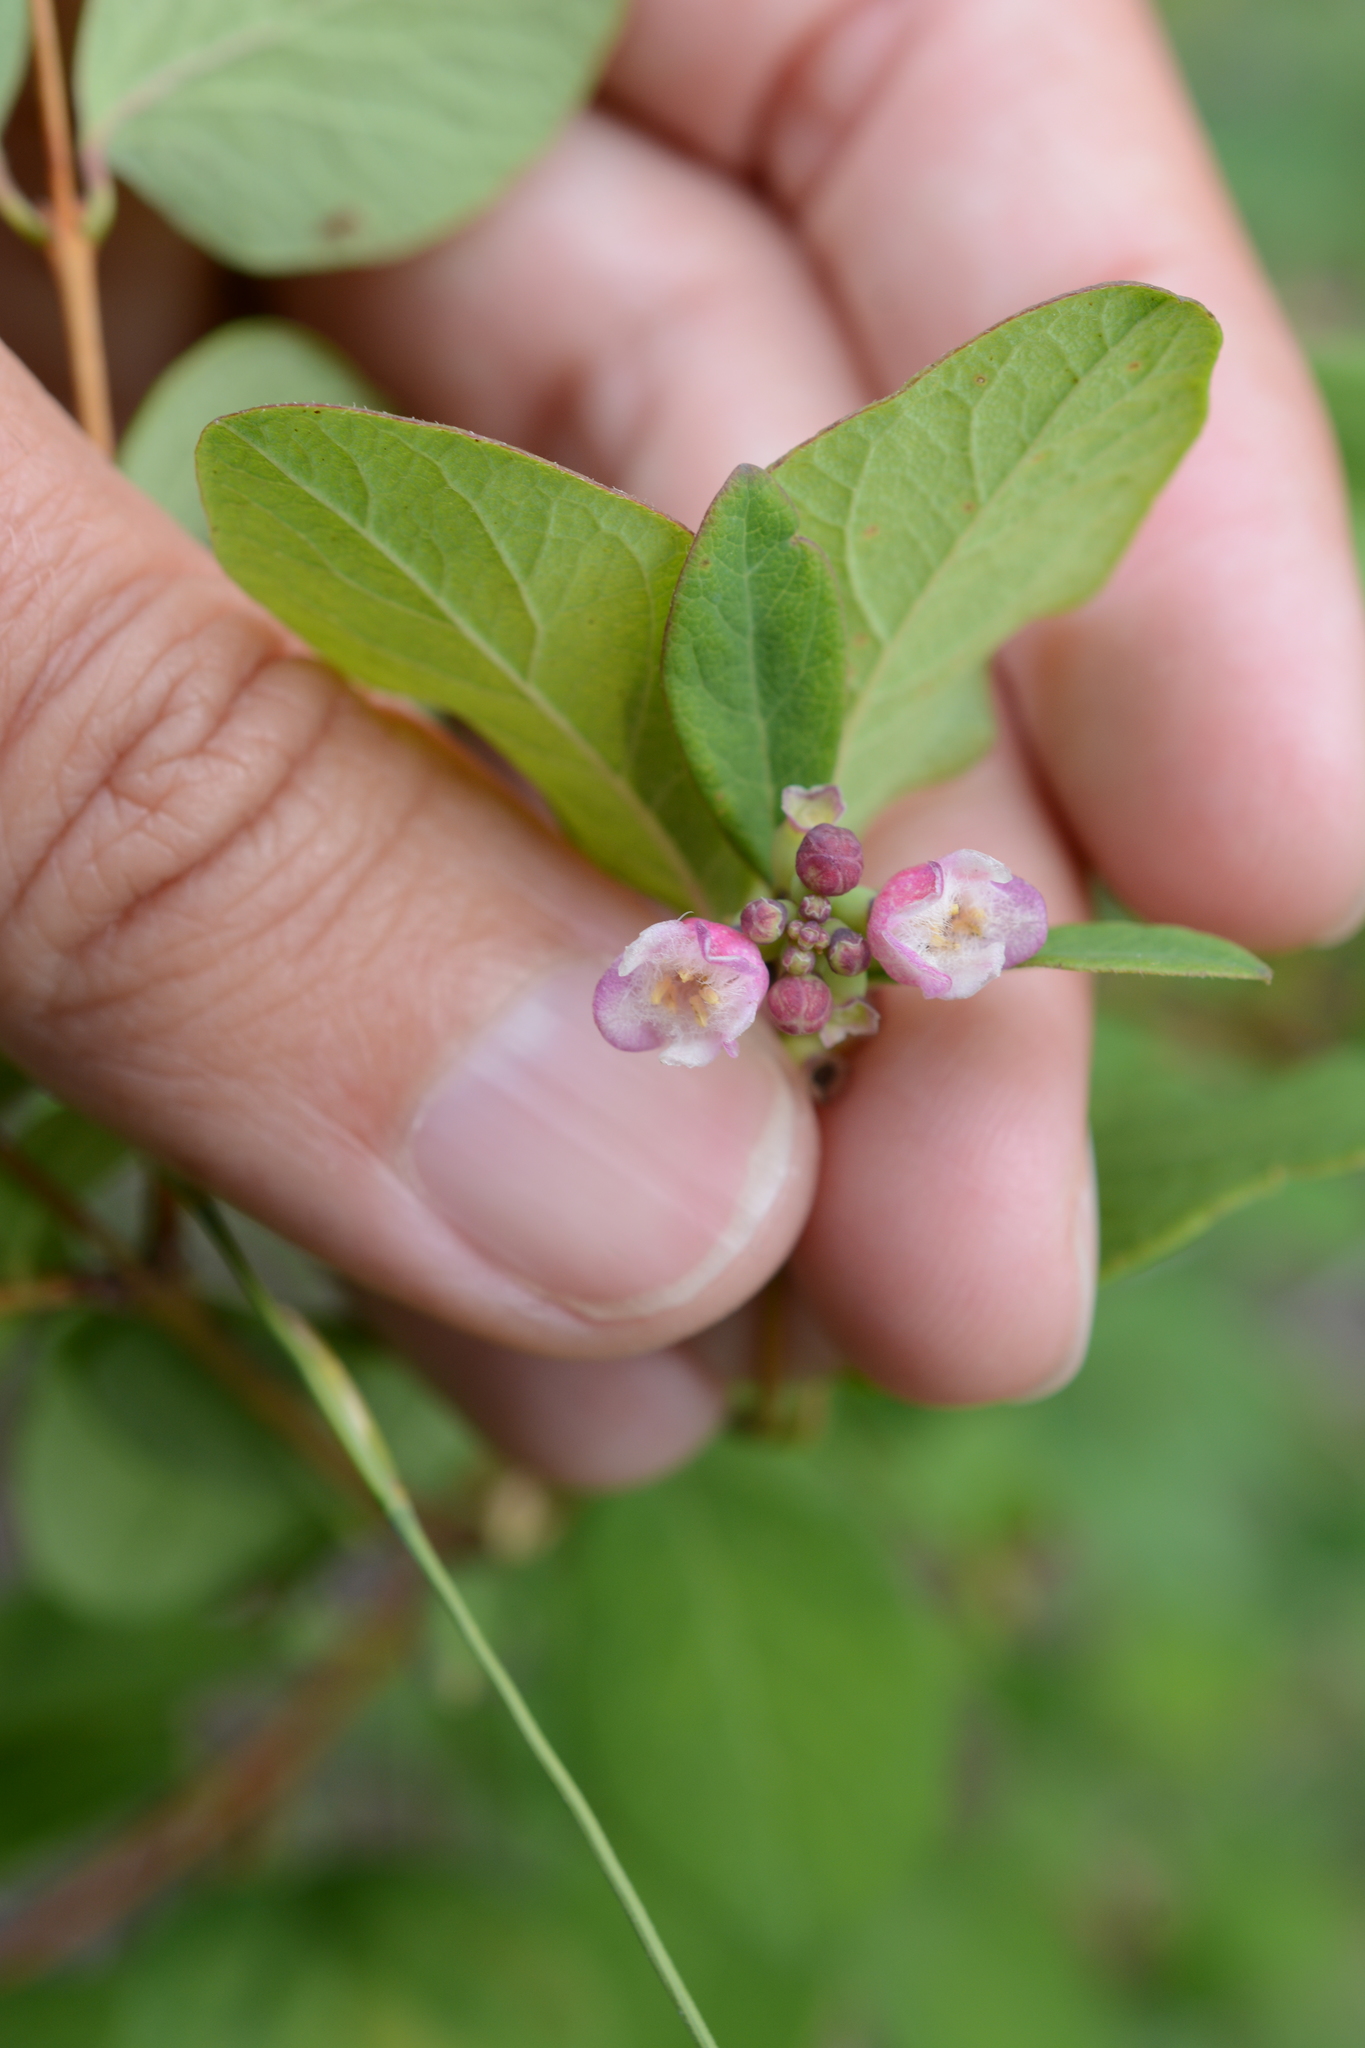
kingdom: Plantae
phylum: Tracheophyta
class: Magnoliopsida
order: Dipsacales
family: Caprifoliaceae
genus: Symphoricarpos
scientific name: Symphoricarpos albus
